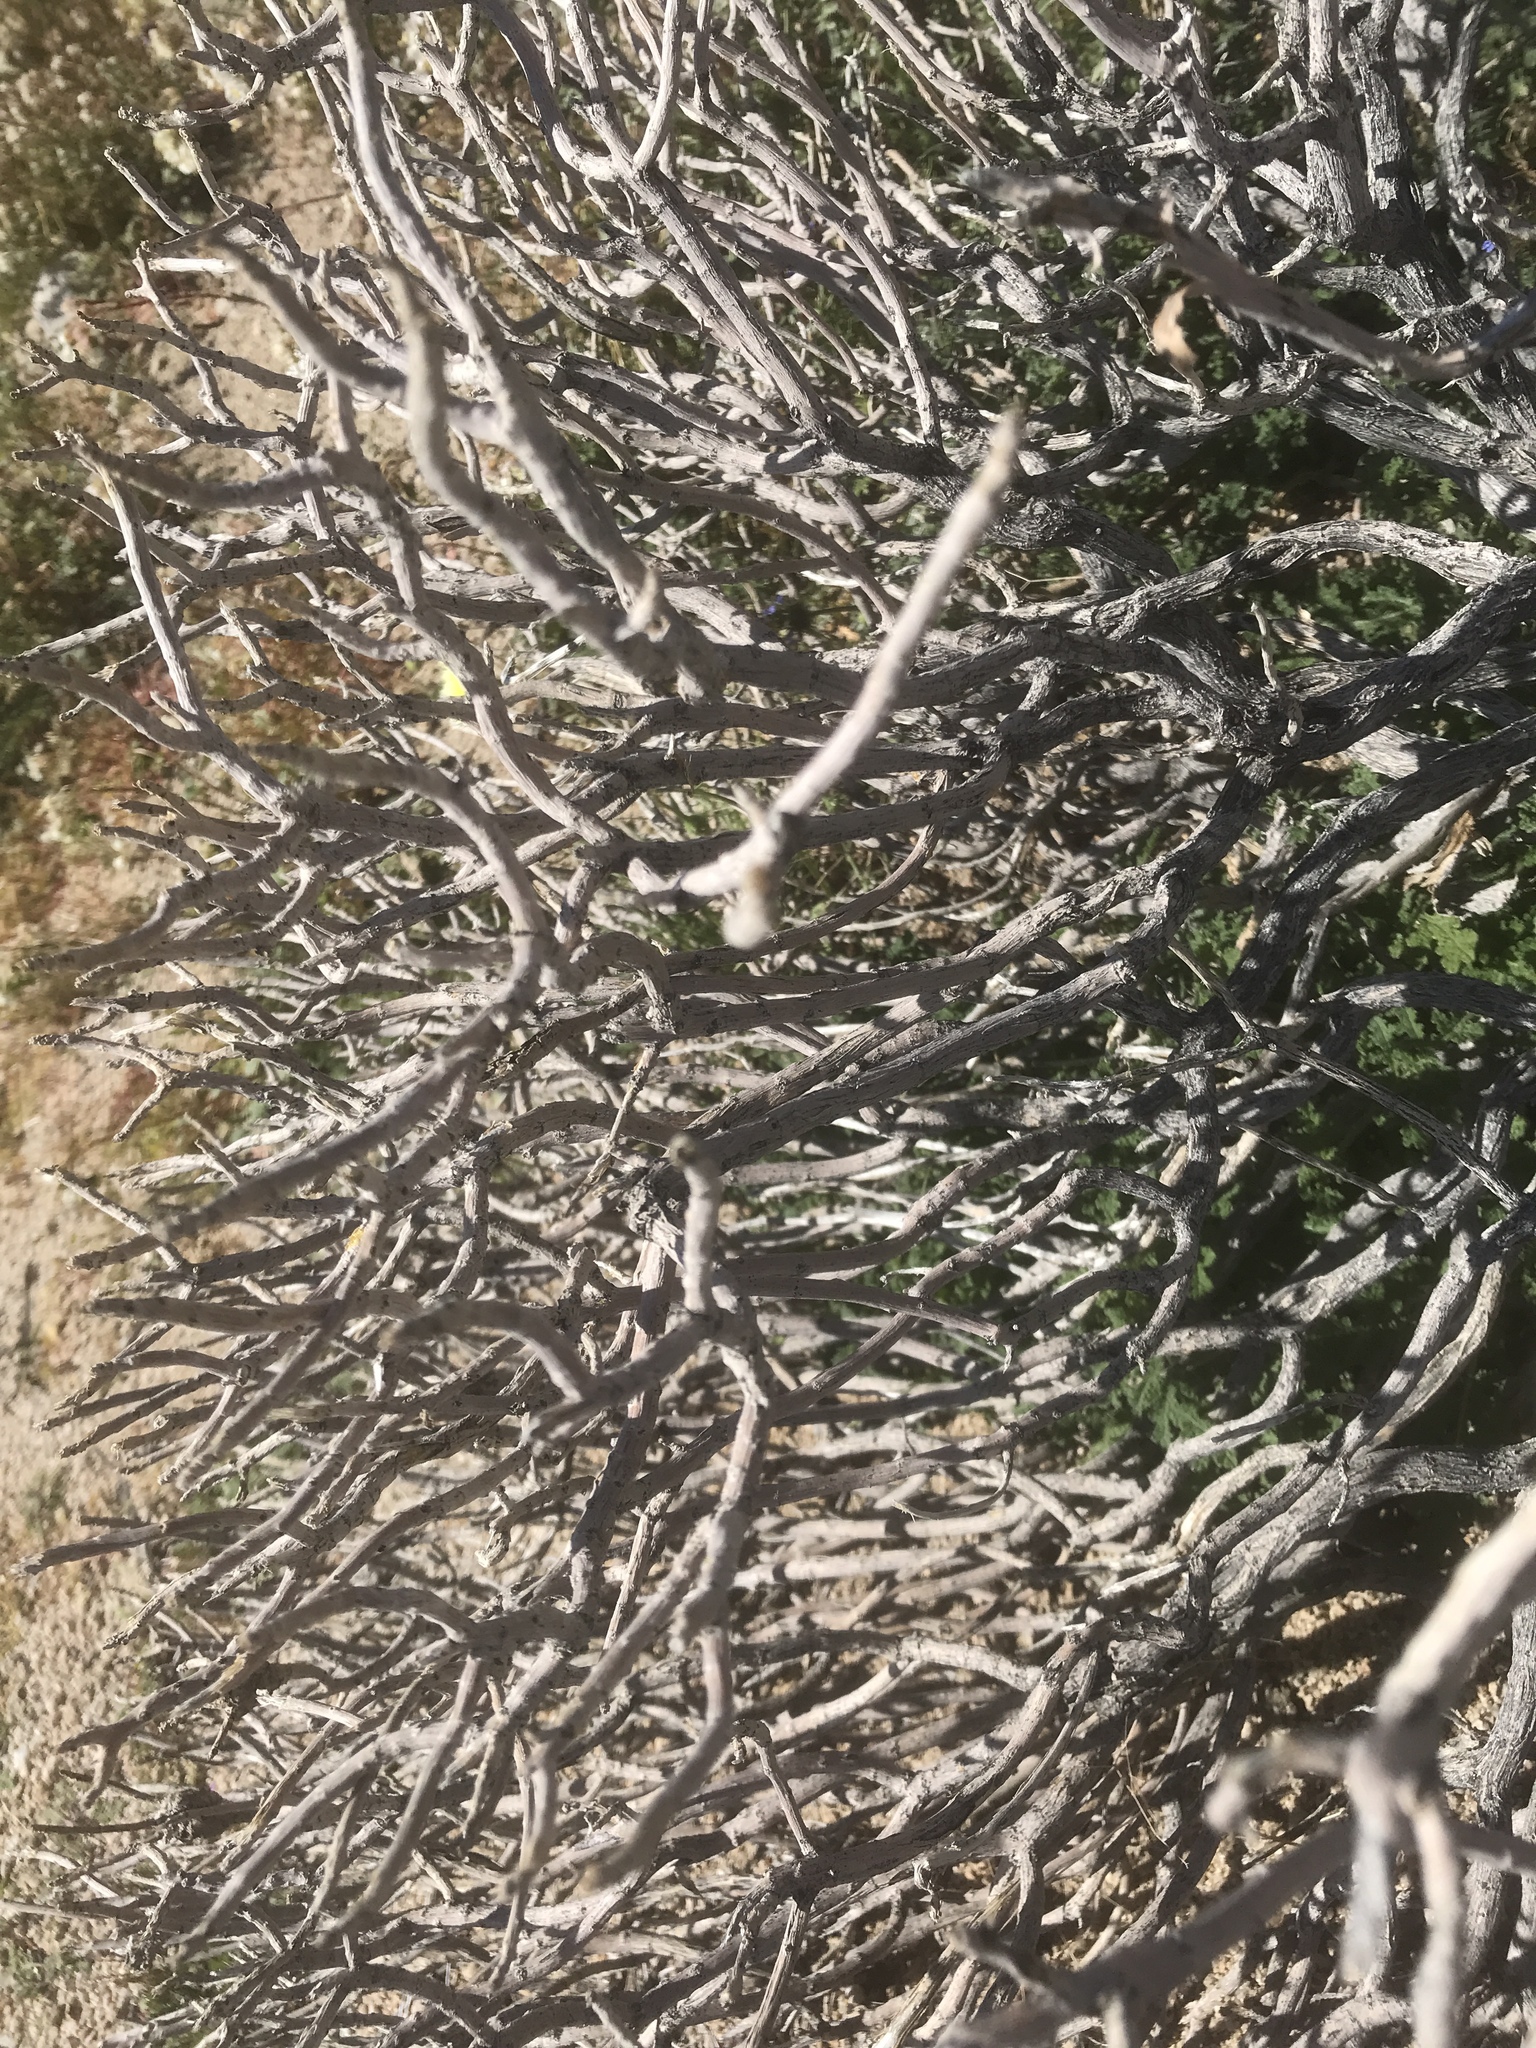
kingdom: Plantae
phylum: Tracheophyta
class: Magnoliopsida
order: Asterales
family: Asteraceae
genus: Encelia
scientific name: Encelia farinosa
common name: Brittlebush
